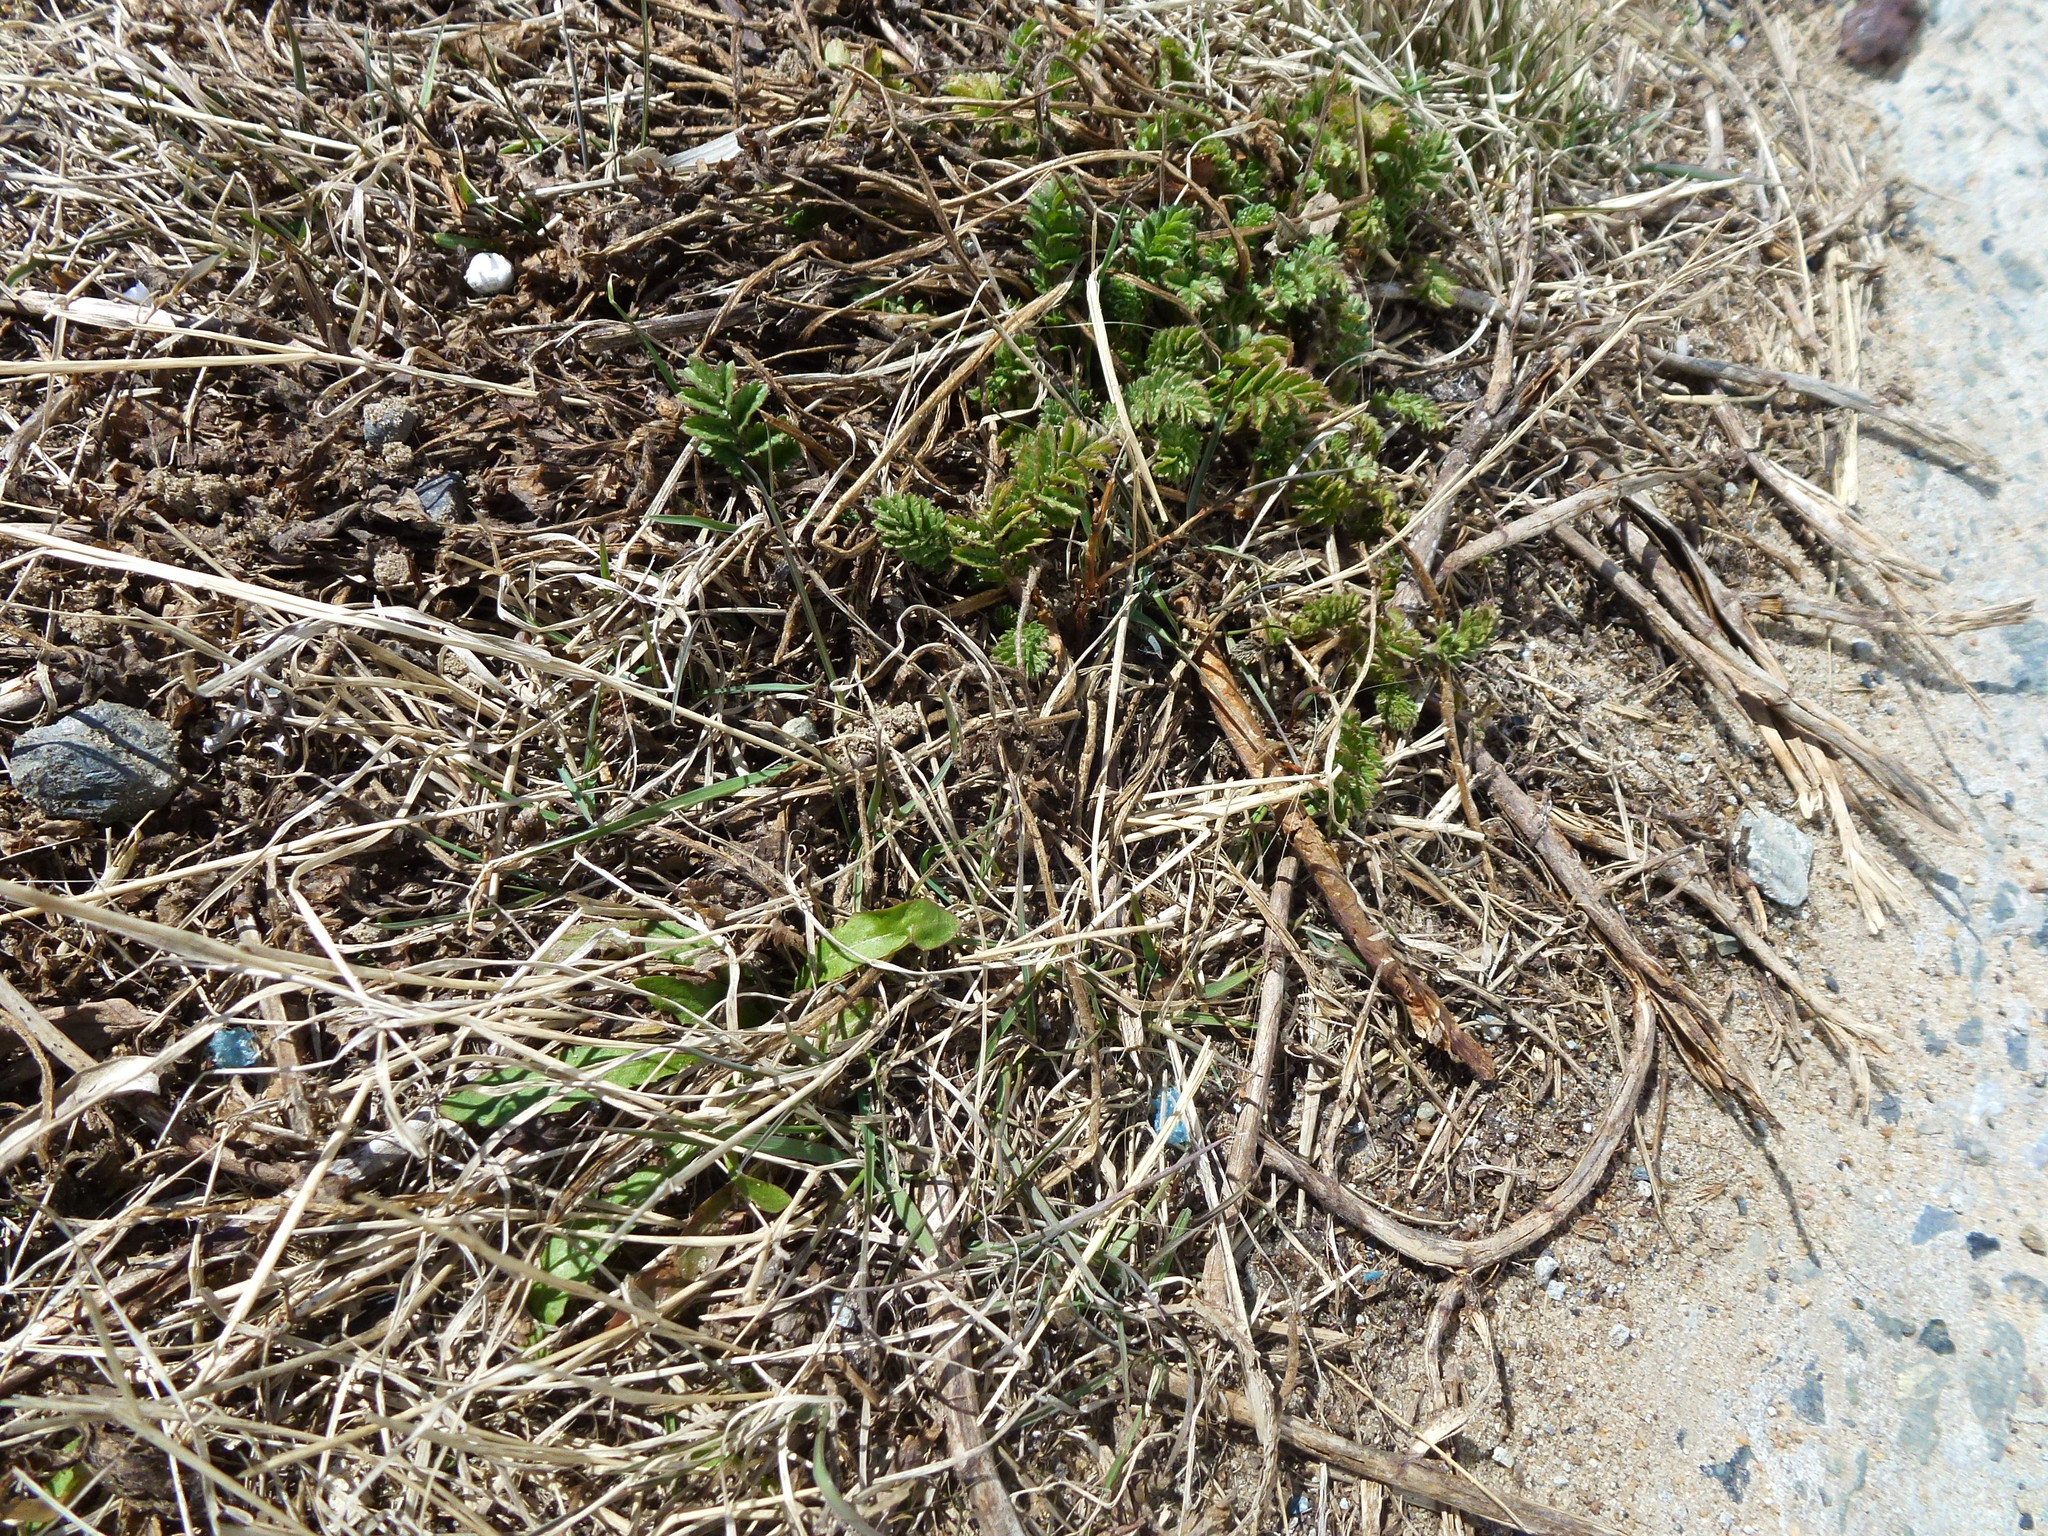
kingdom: Plantae
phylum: Tracheophyta
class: Magnoliopsida
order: Rosales
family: Rosaceae
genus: Potentilla
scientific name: Potentilla supina
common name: Prostrate cinquefoil
